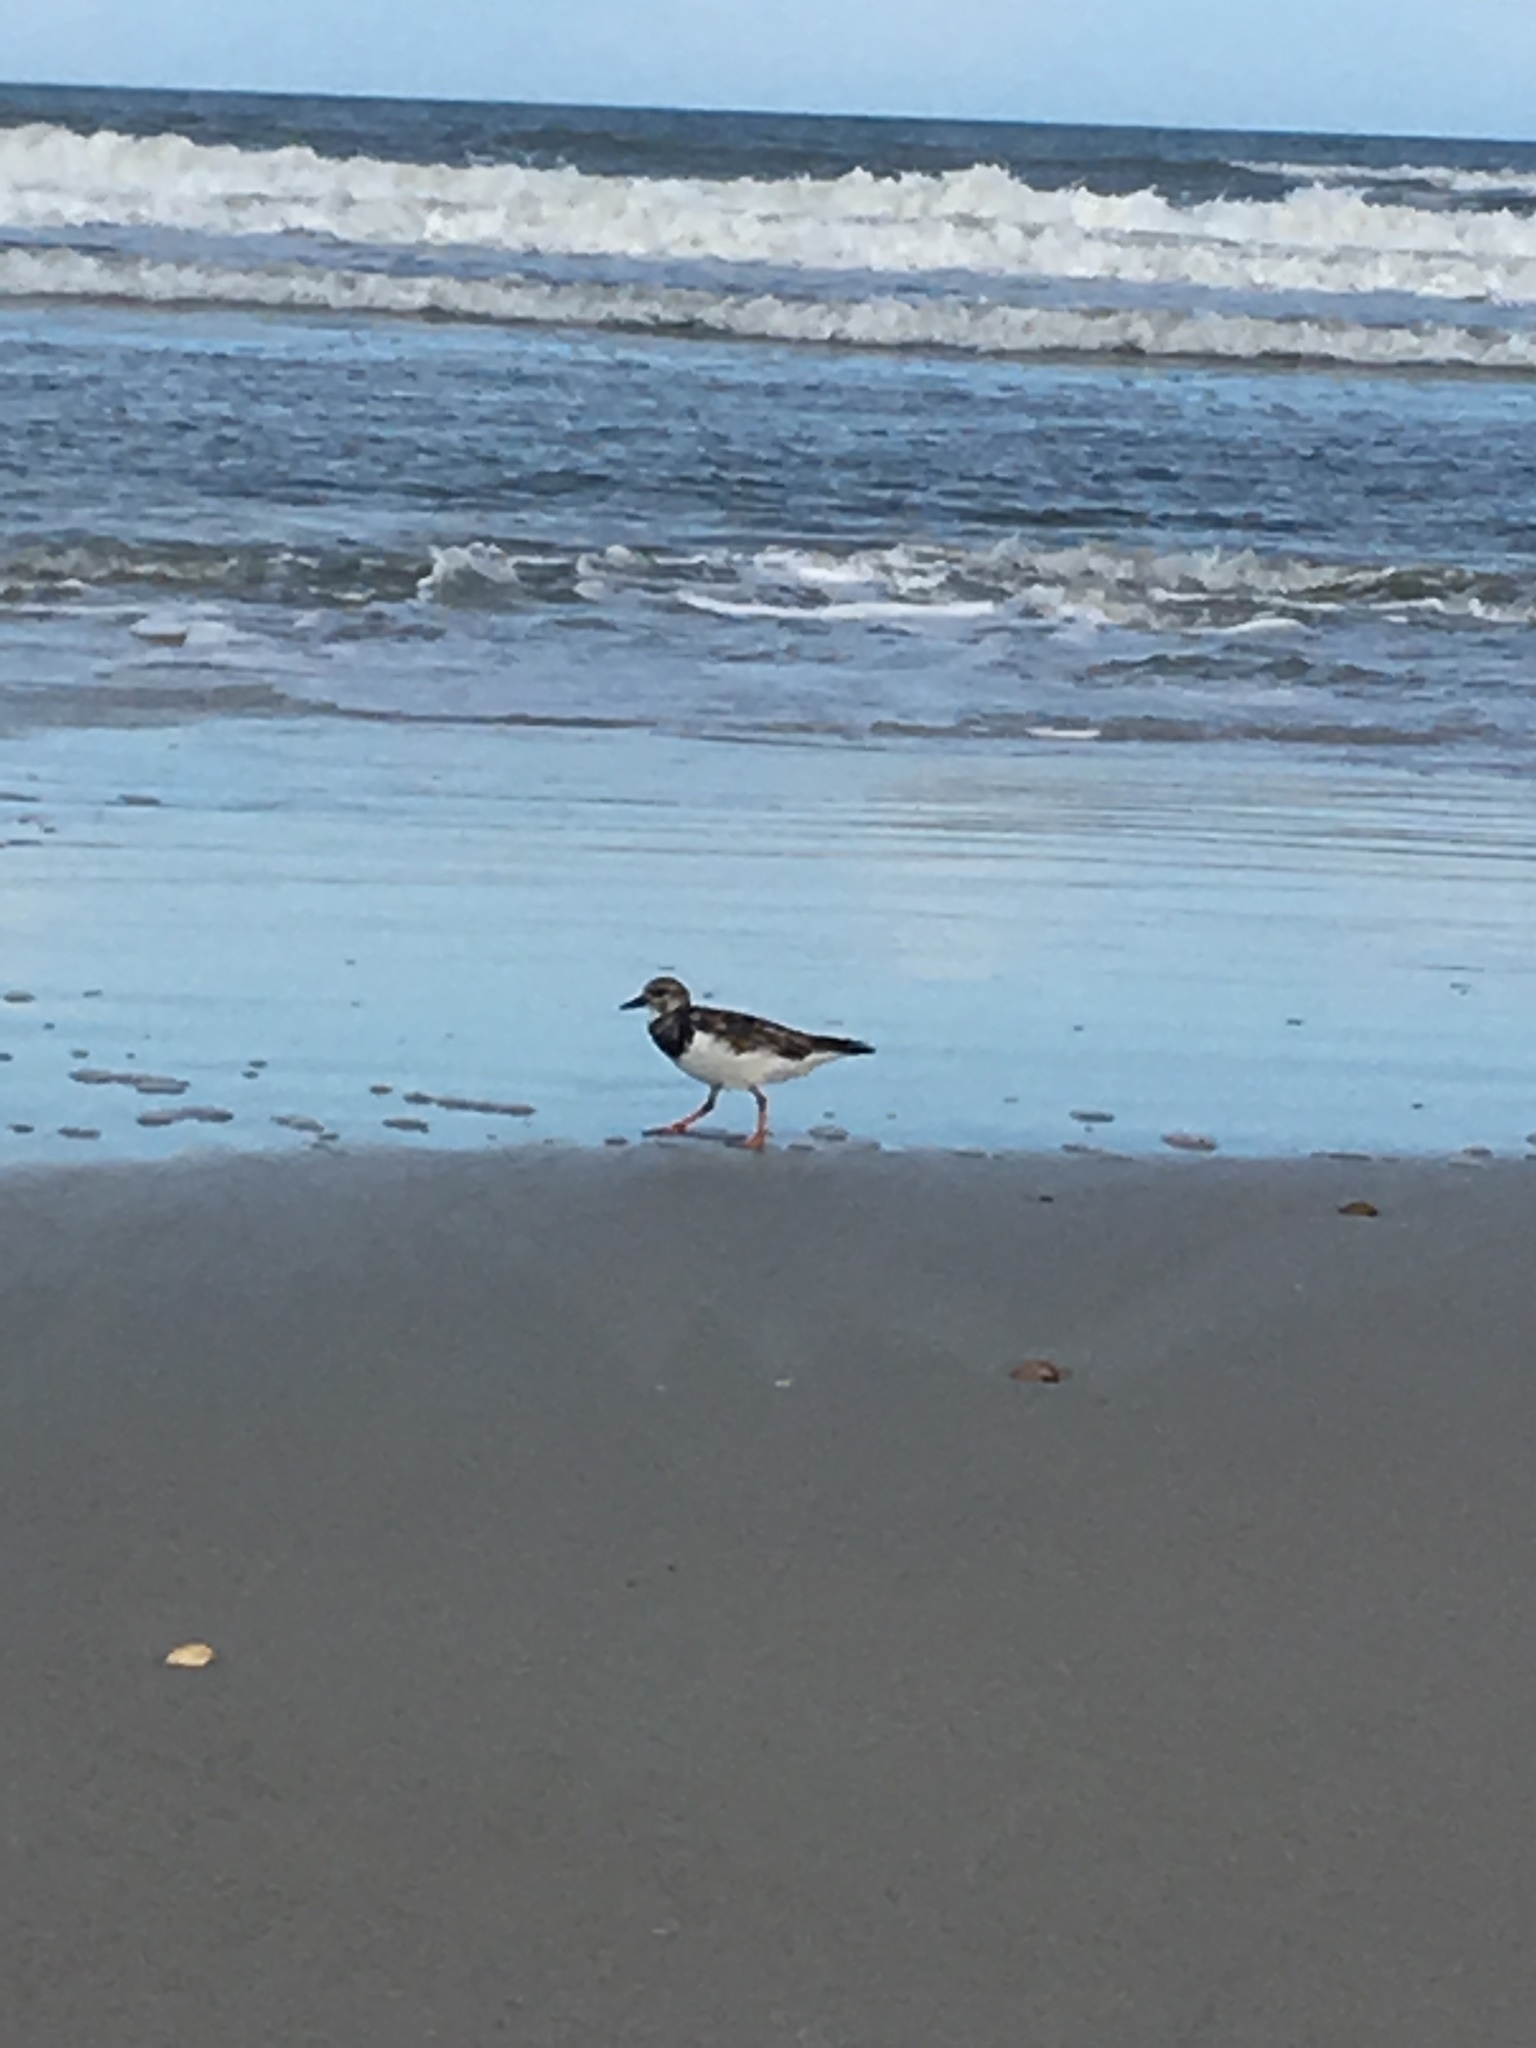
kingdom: Animalia
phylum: Chordata
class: Aves
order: Charadriiformes
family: Scolopacidae
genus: Arenaria
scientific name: Arenaria interpres
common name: Ruddy turnstone
